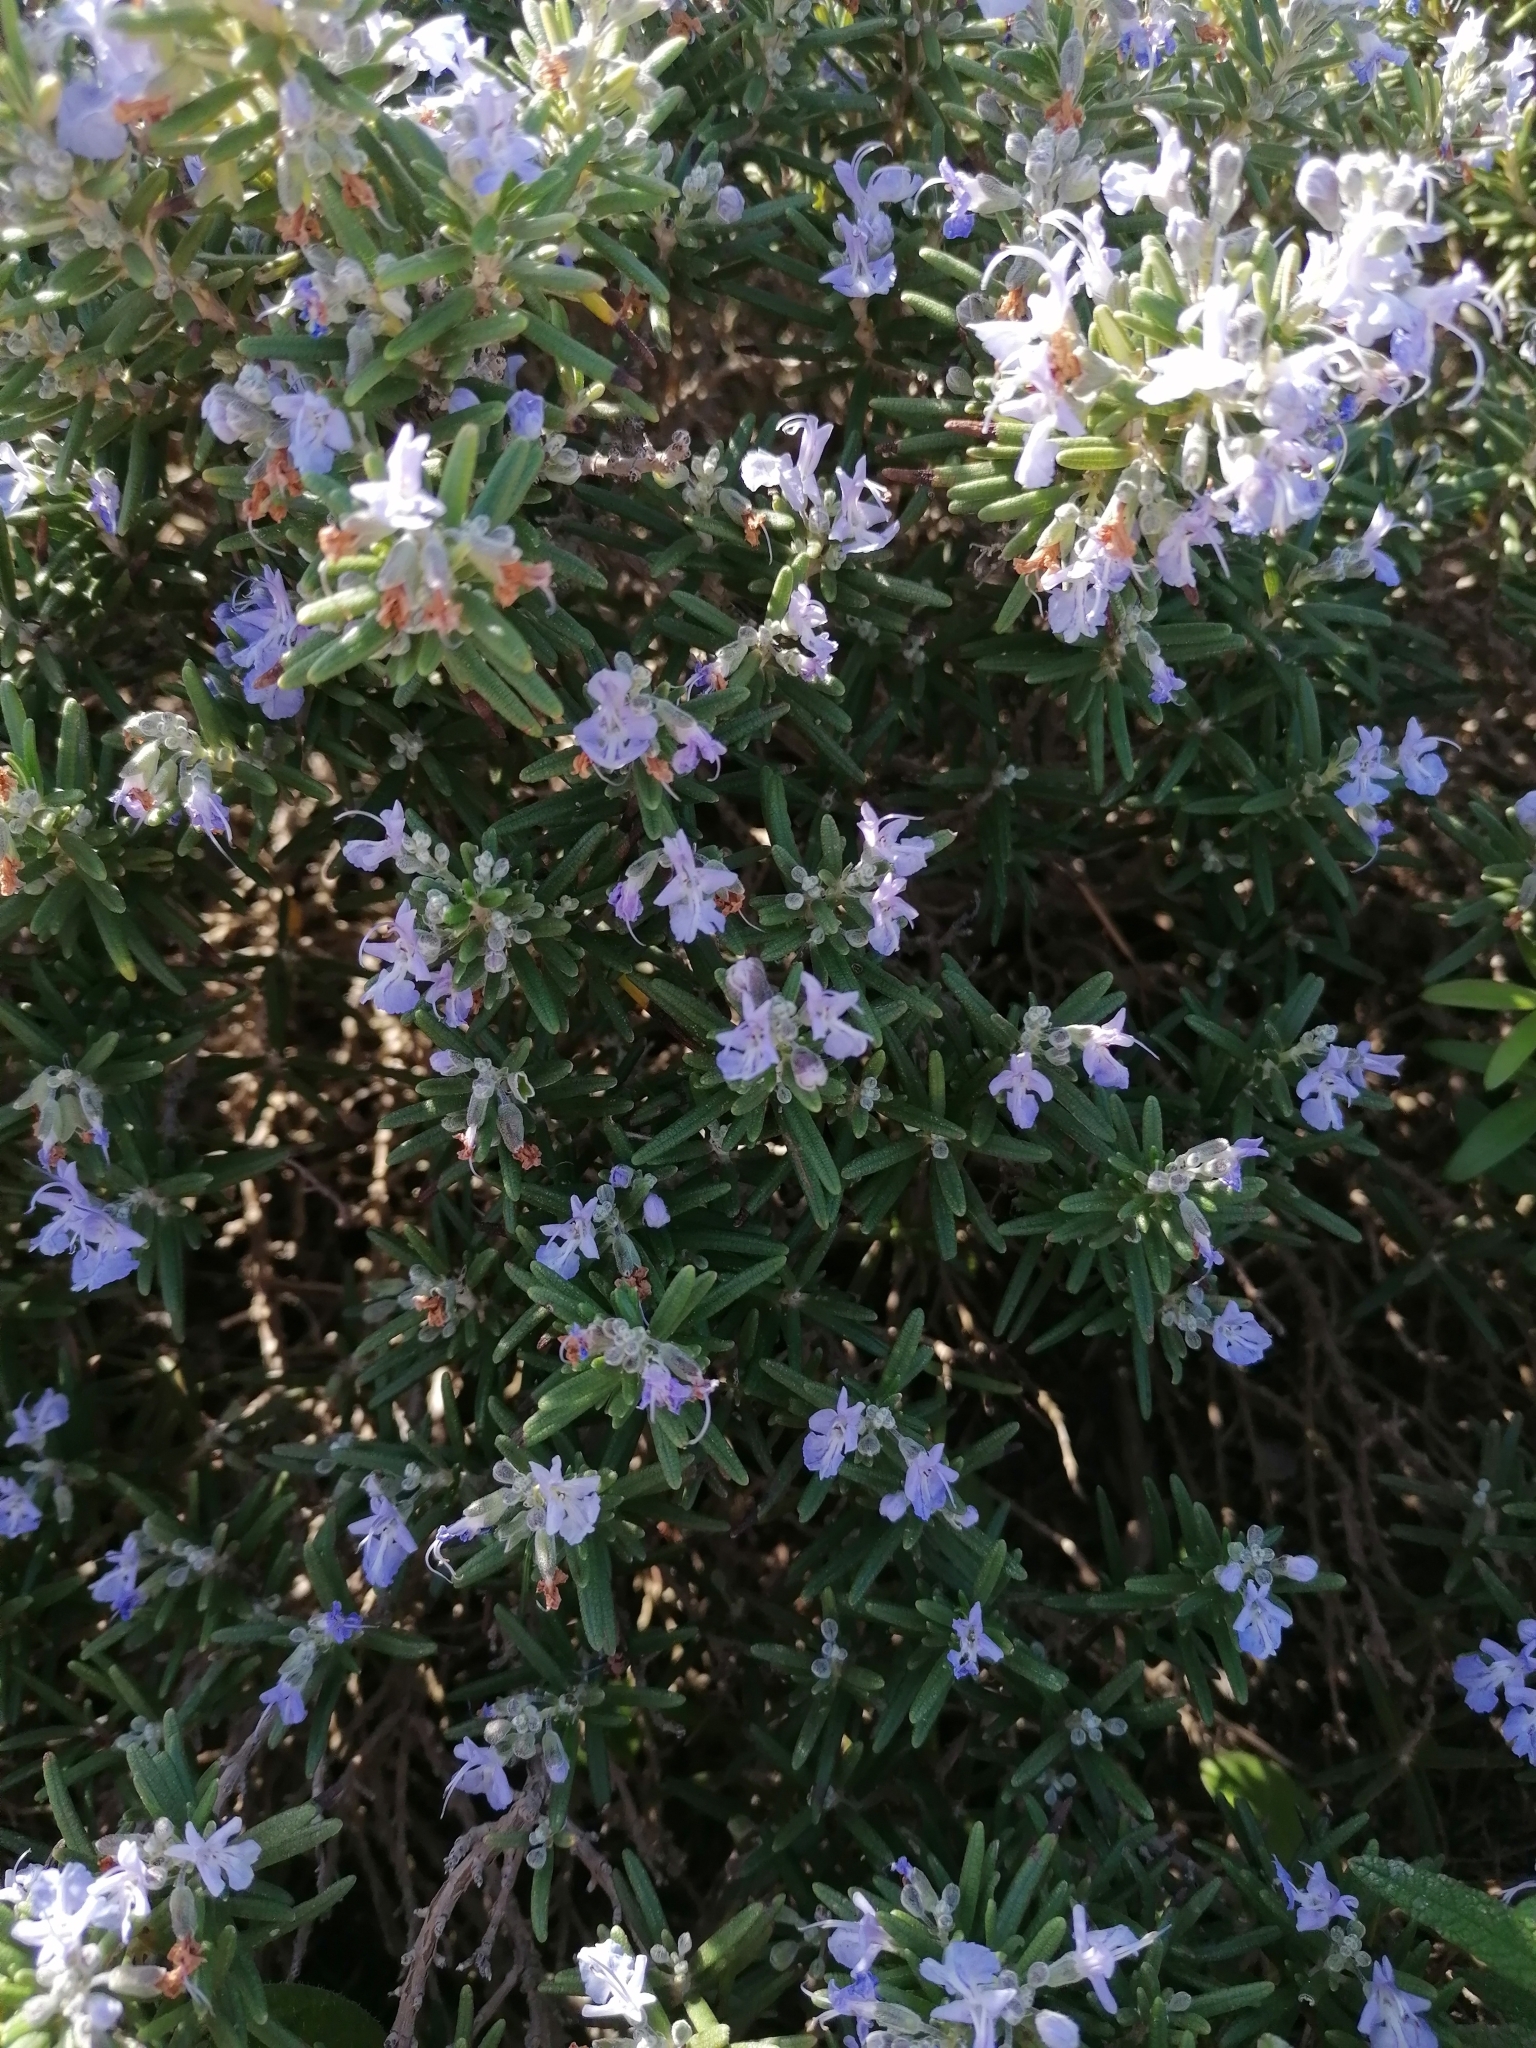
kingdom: Plantae
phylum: Tracheophyta
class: Magnoliopsida
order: Lamiales
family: Lamiaceae
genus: Salvia
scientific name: Salvia rosmarinus
